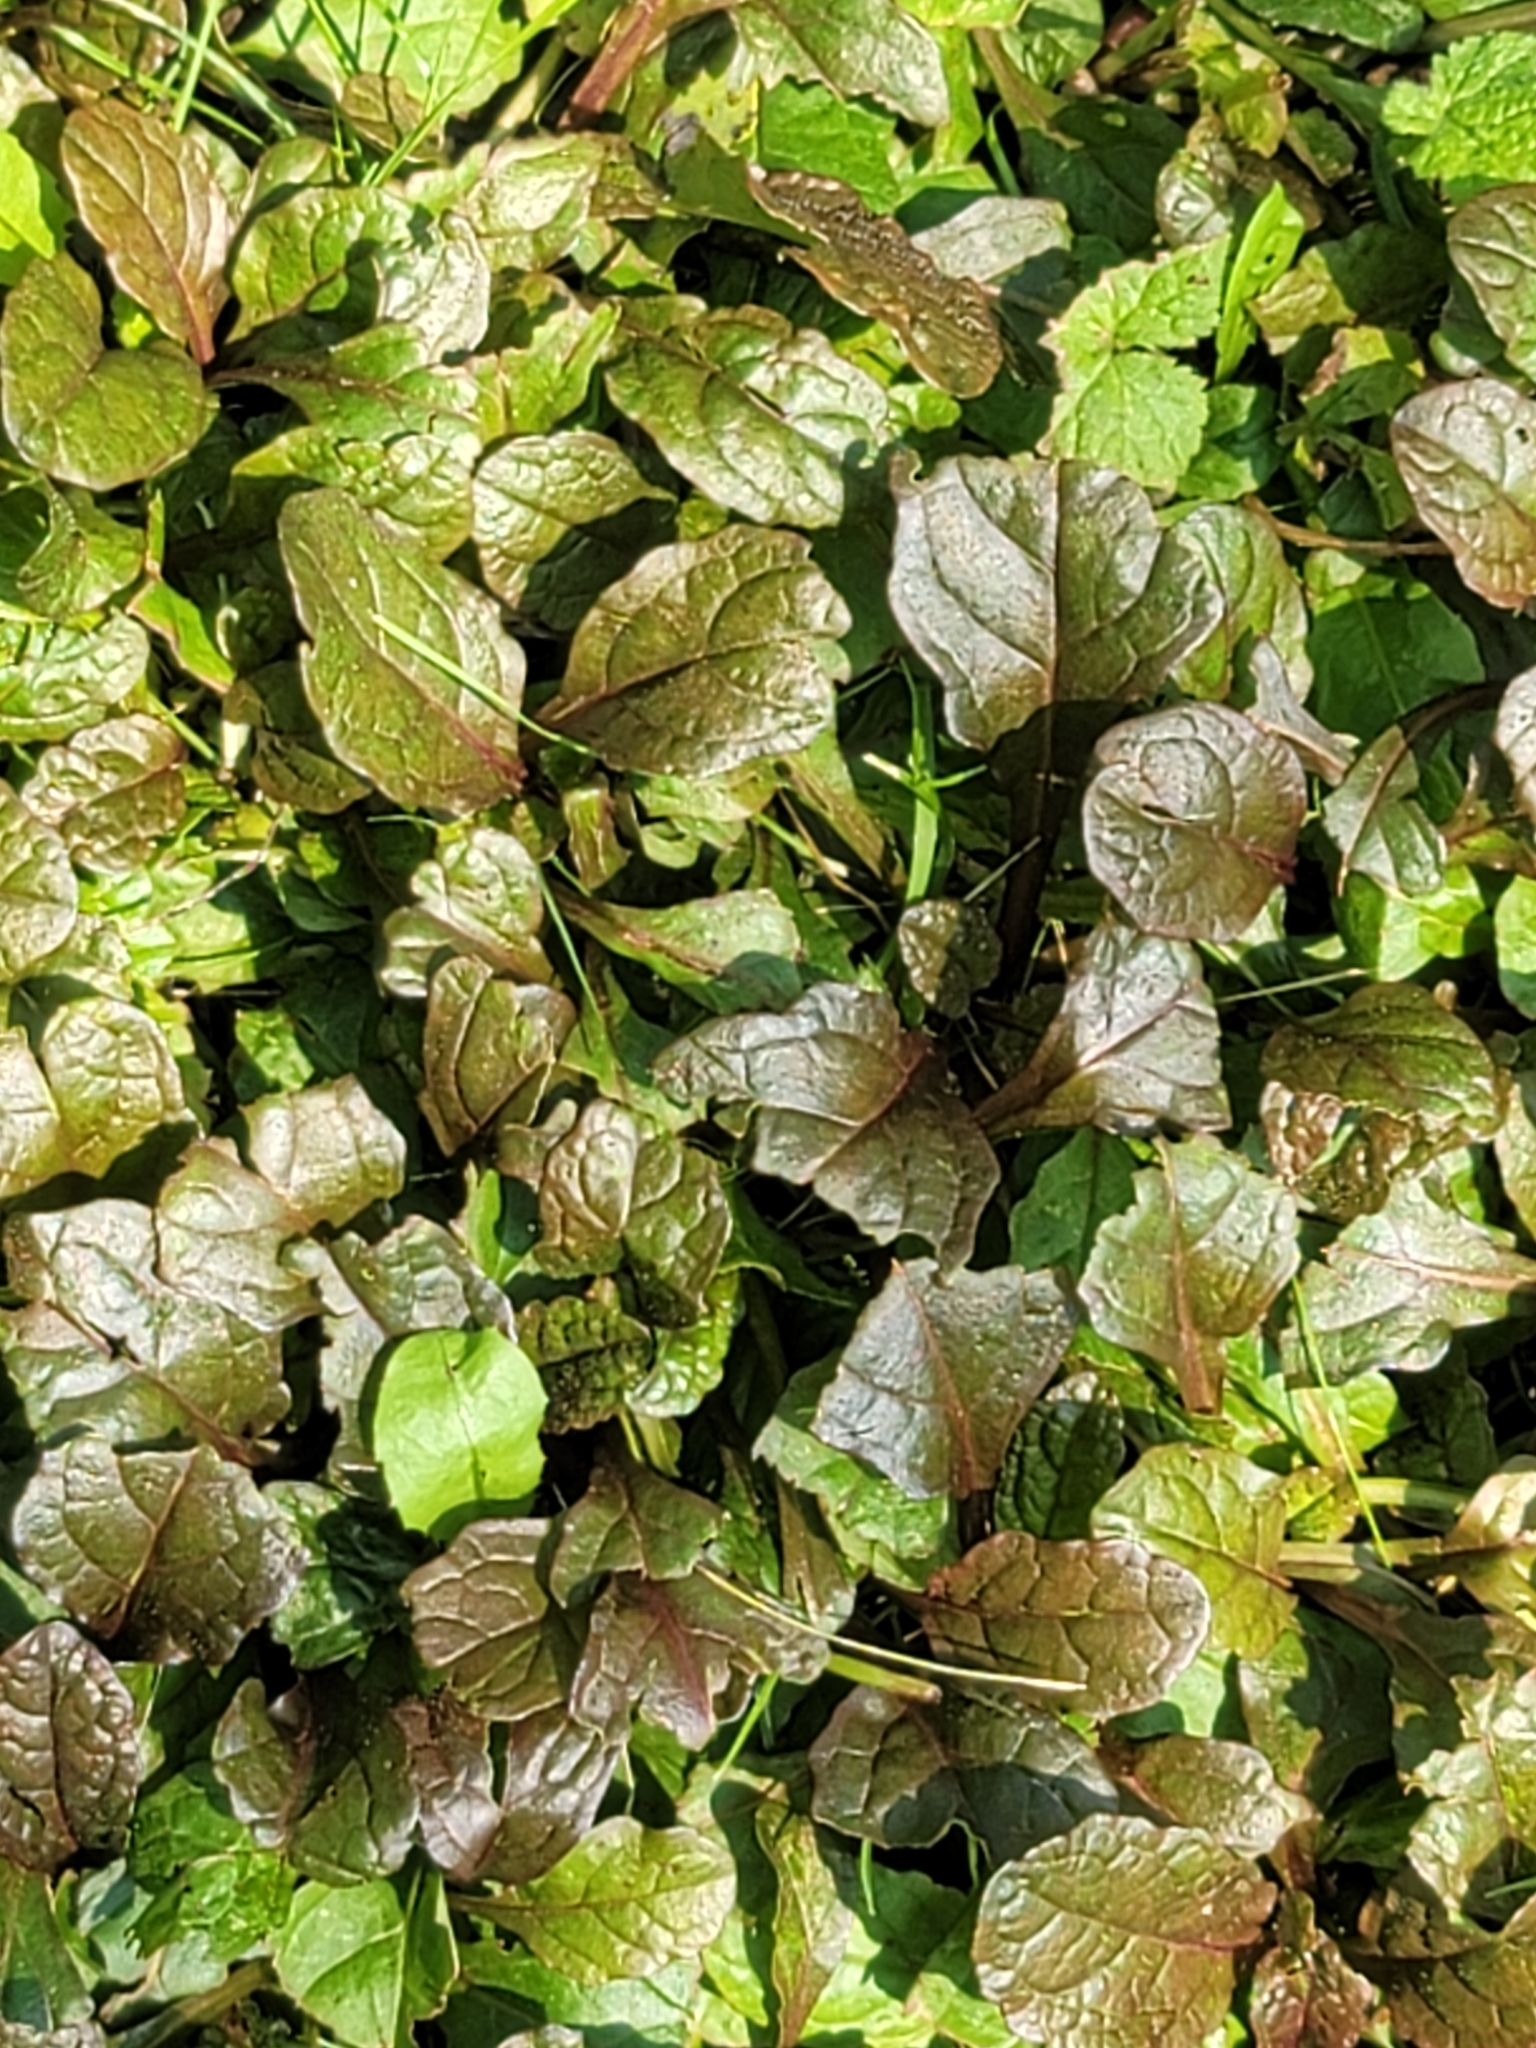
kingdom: Plantae
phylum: Tracheophyta
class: Magnoliopsida
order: Lamiales
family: Lamiaceae
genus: Ajuga
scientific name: Ajuga reptans
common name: Bugle
